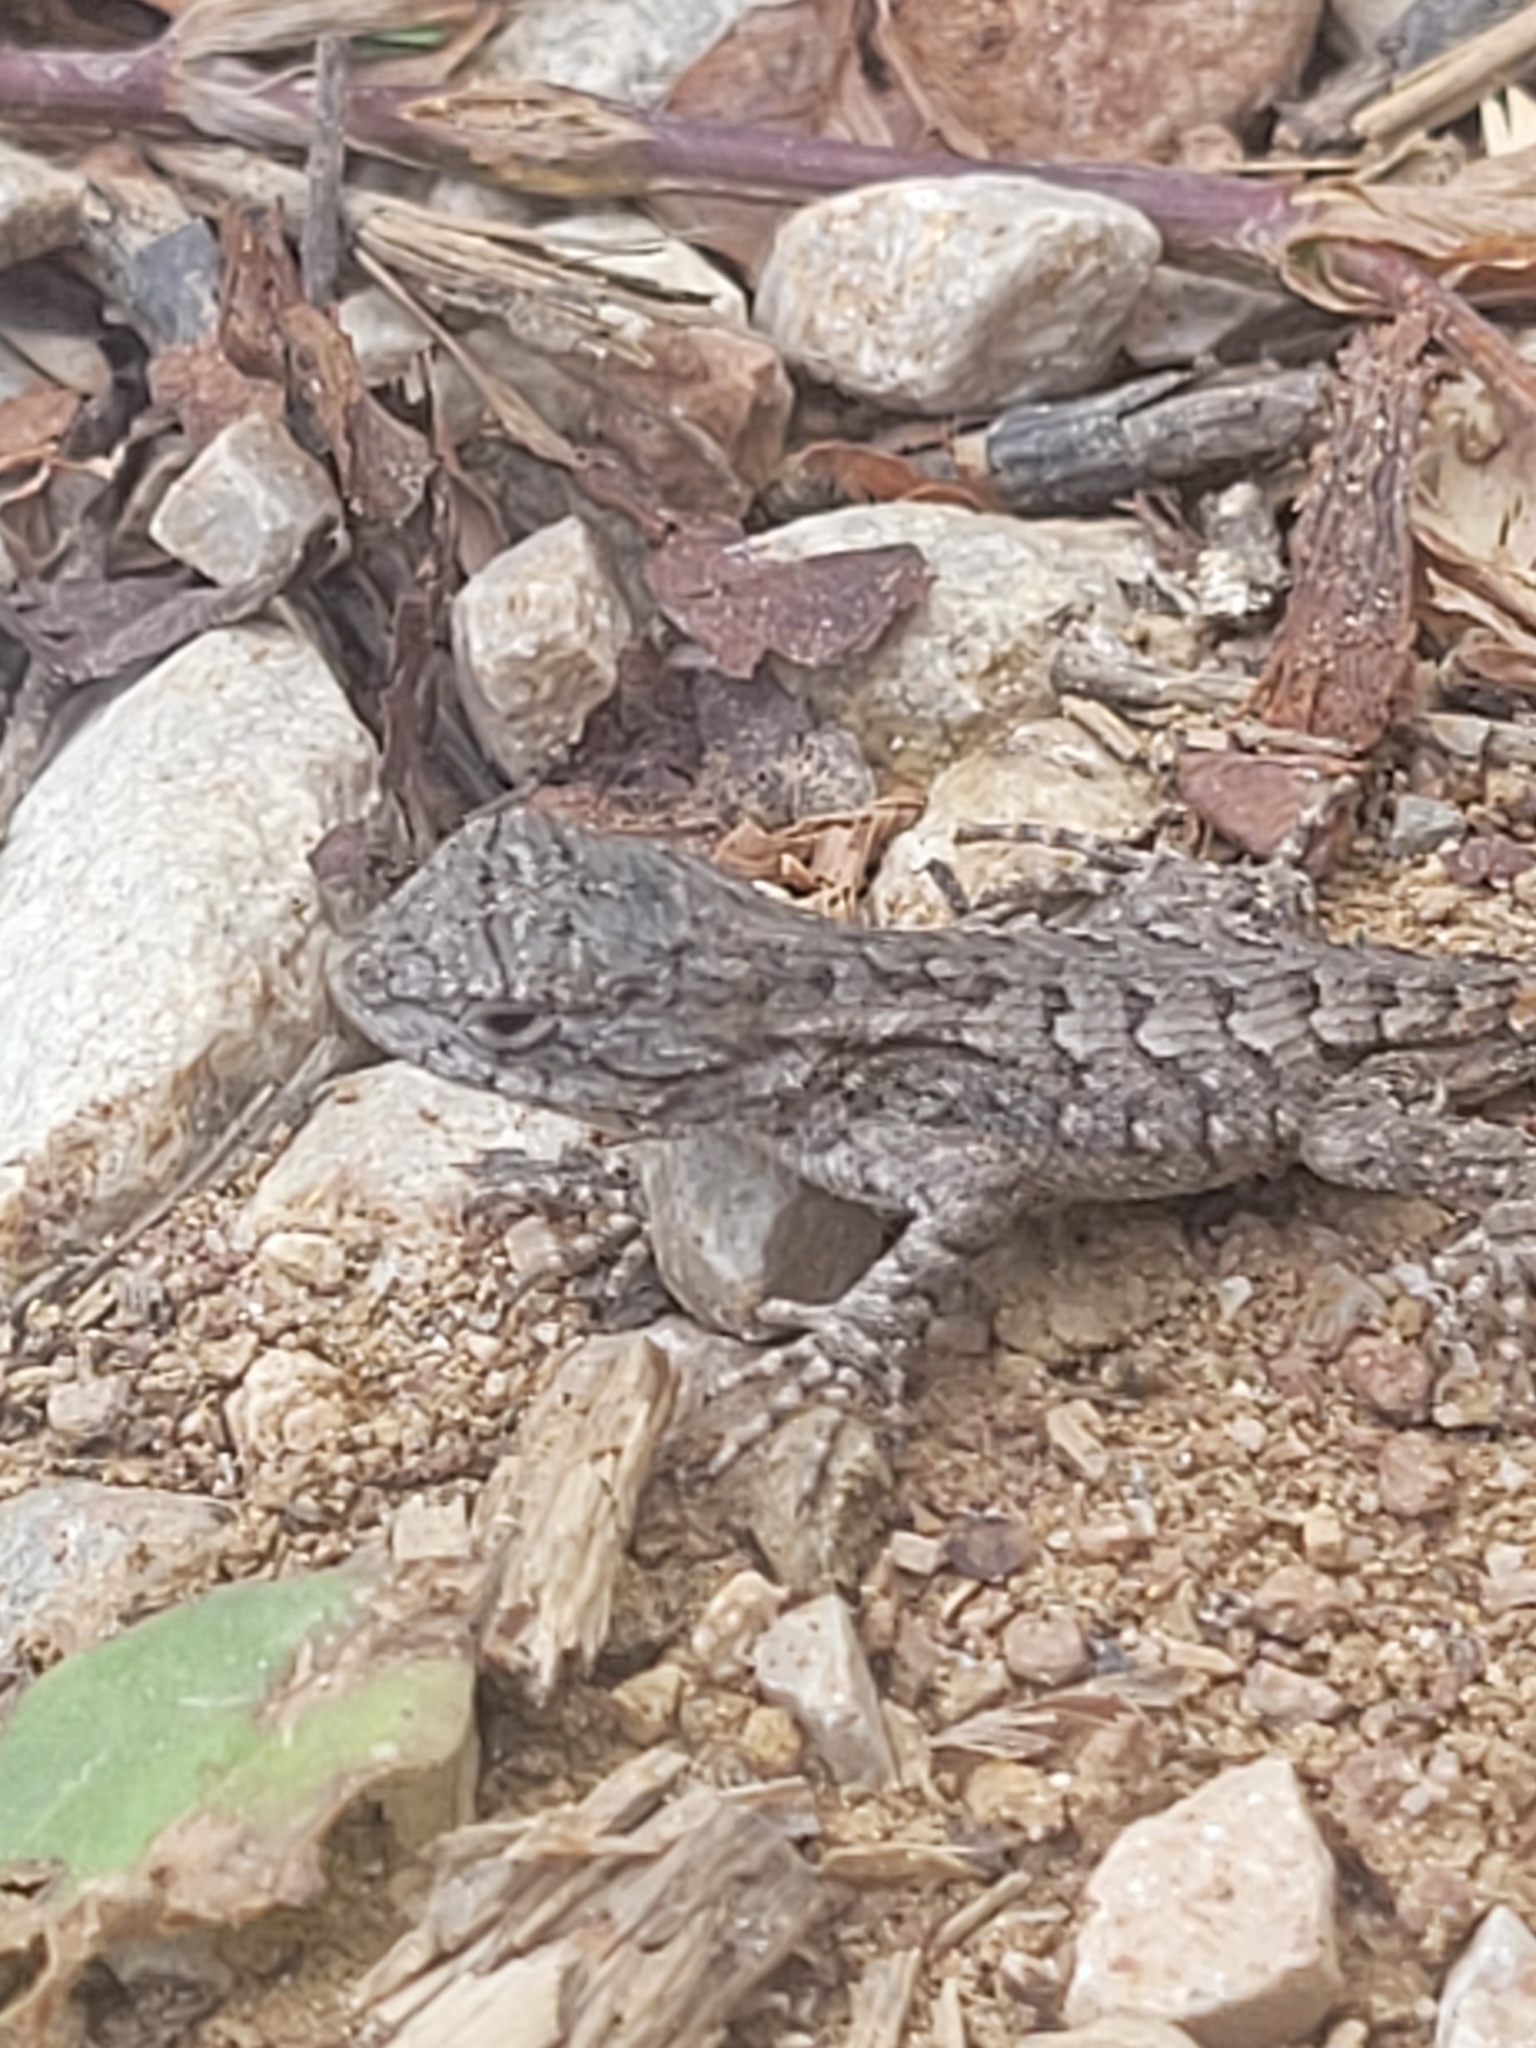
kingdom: Animalia
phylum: Chordata
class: Squamata
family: Phrynosomatidae
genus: Sceloporus
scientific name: Sceloporus undulatus
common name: Eastern fence lizard
